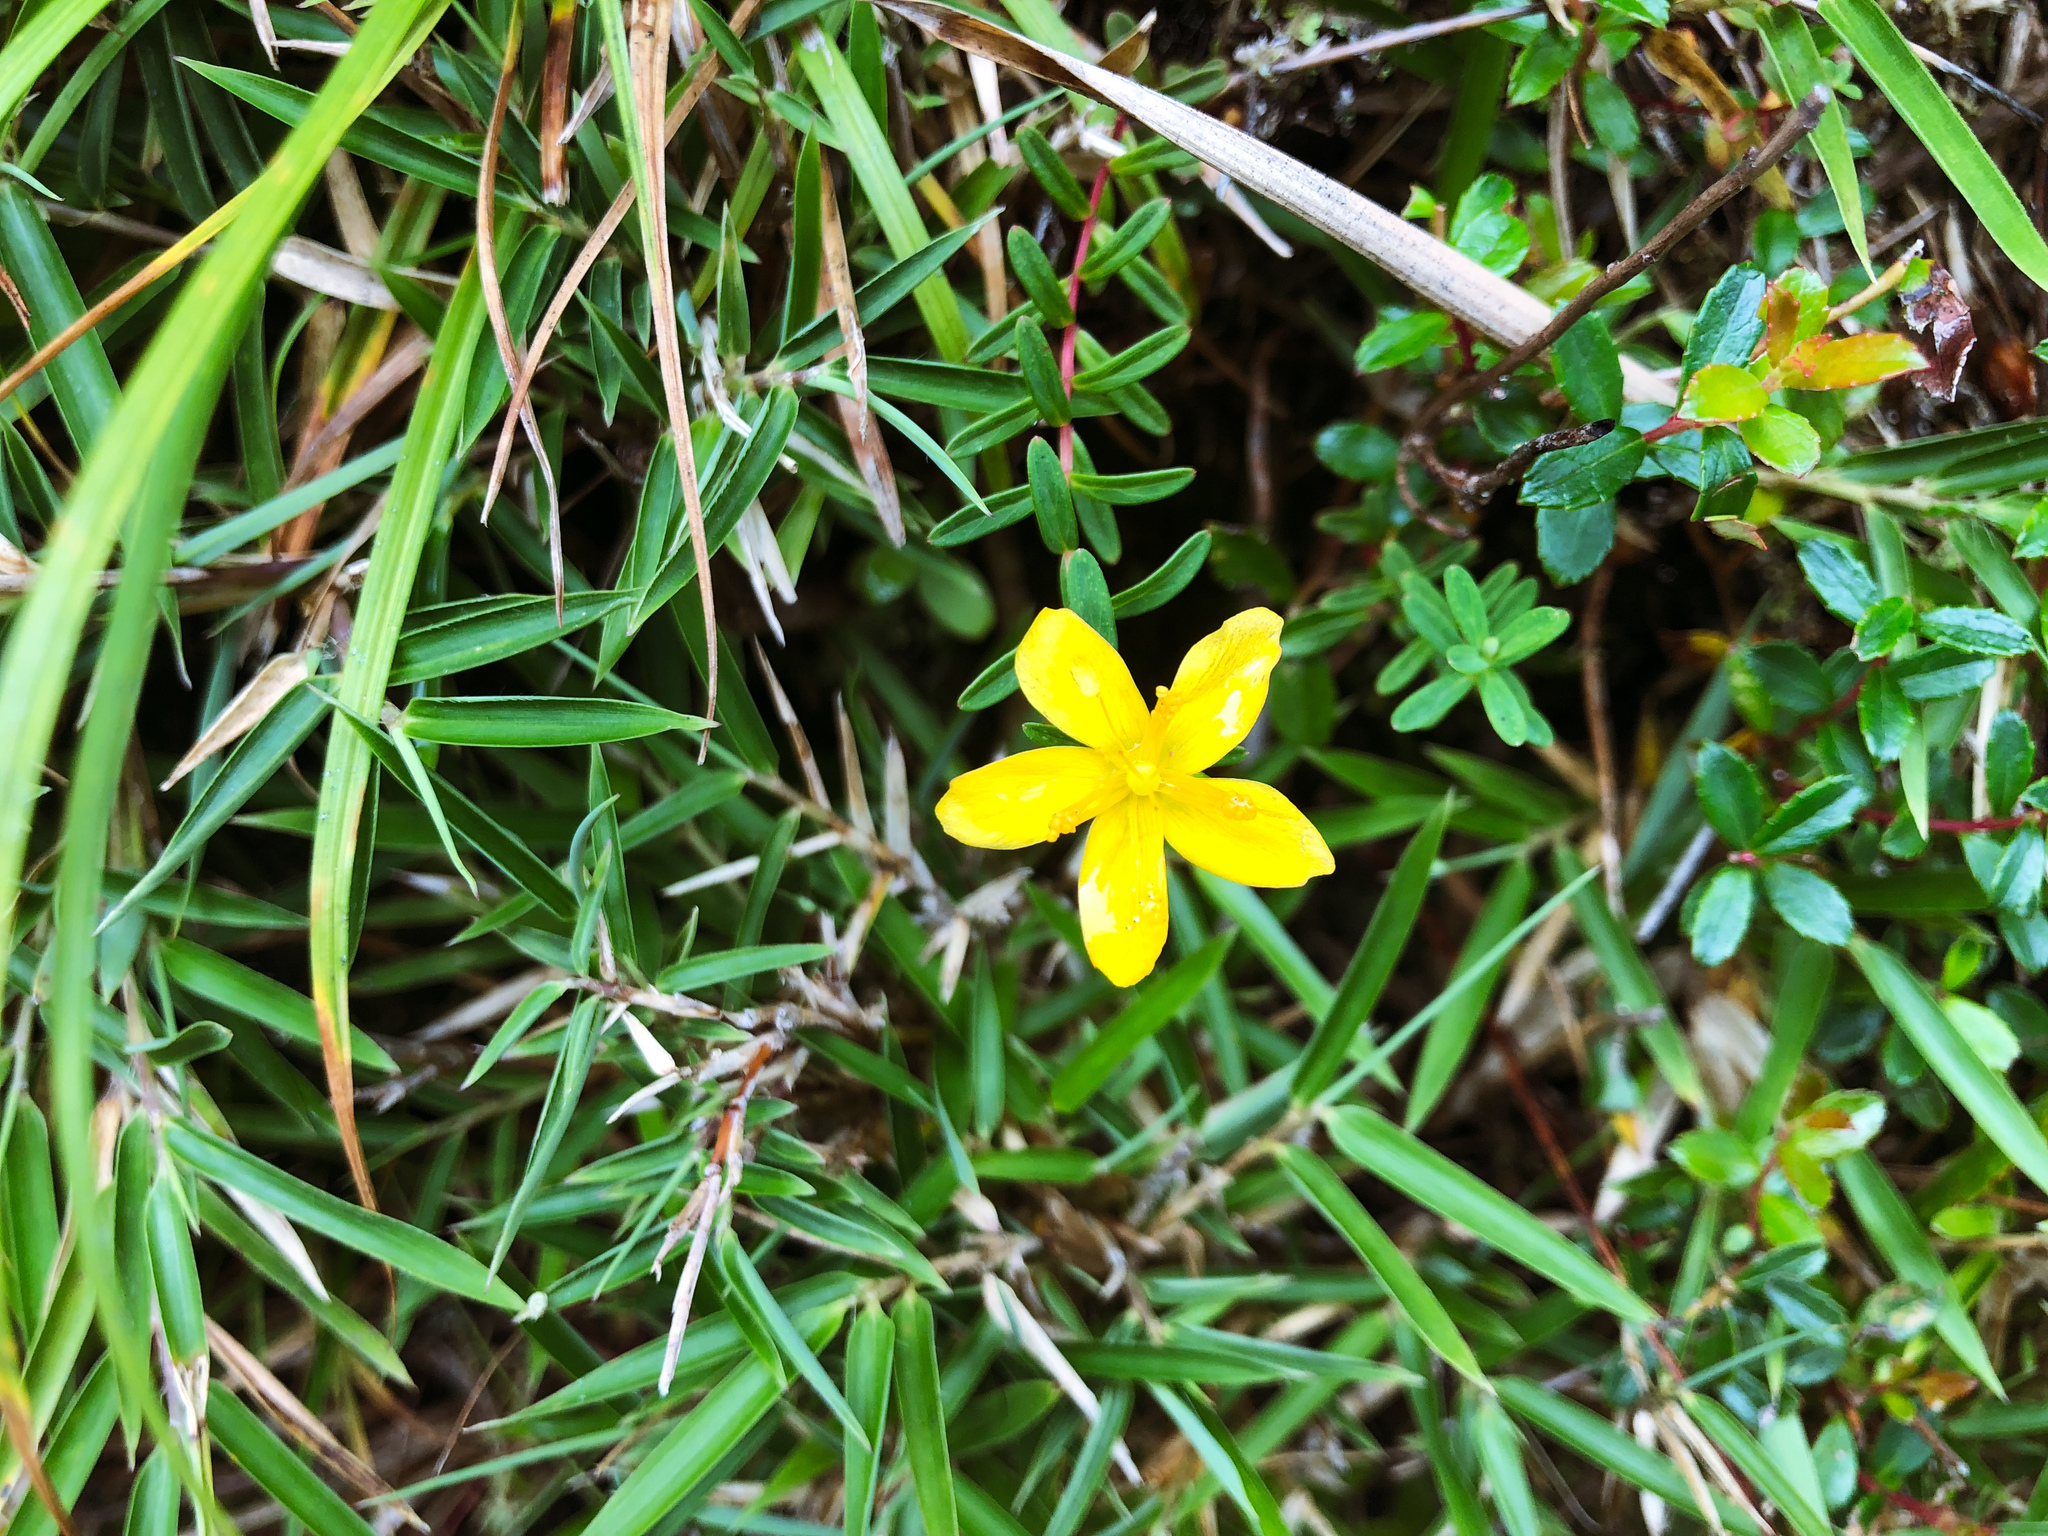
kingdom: Plantae
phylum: Tracheophyta
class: Magnoliopsida
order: Malpighiales
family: Hypericaceae
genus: Hypericum
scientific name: Hypericum nagasawae
